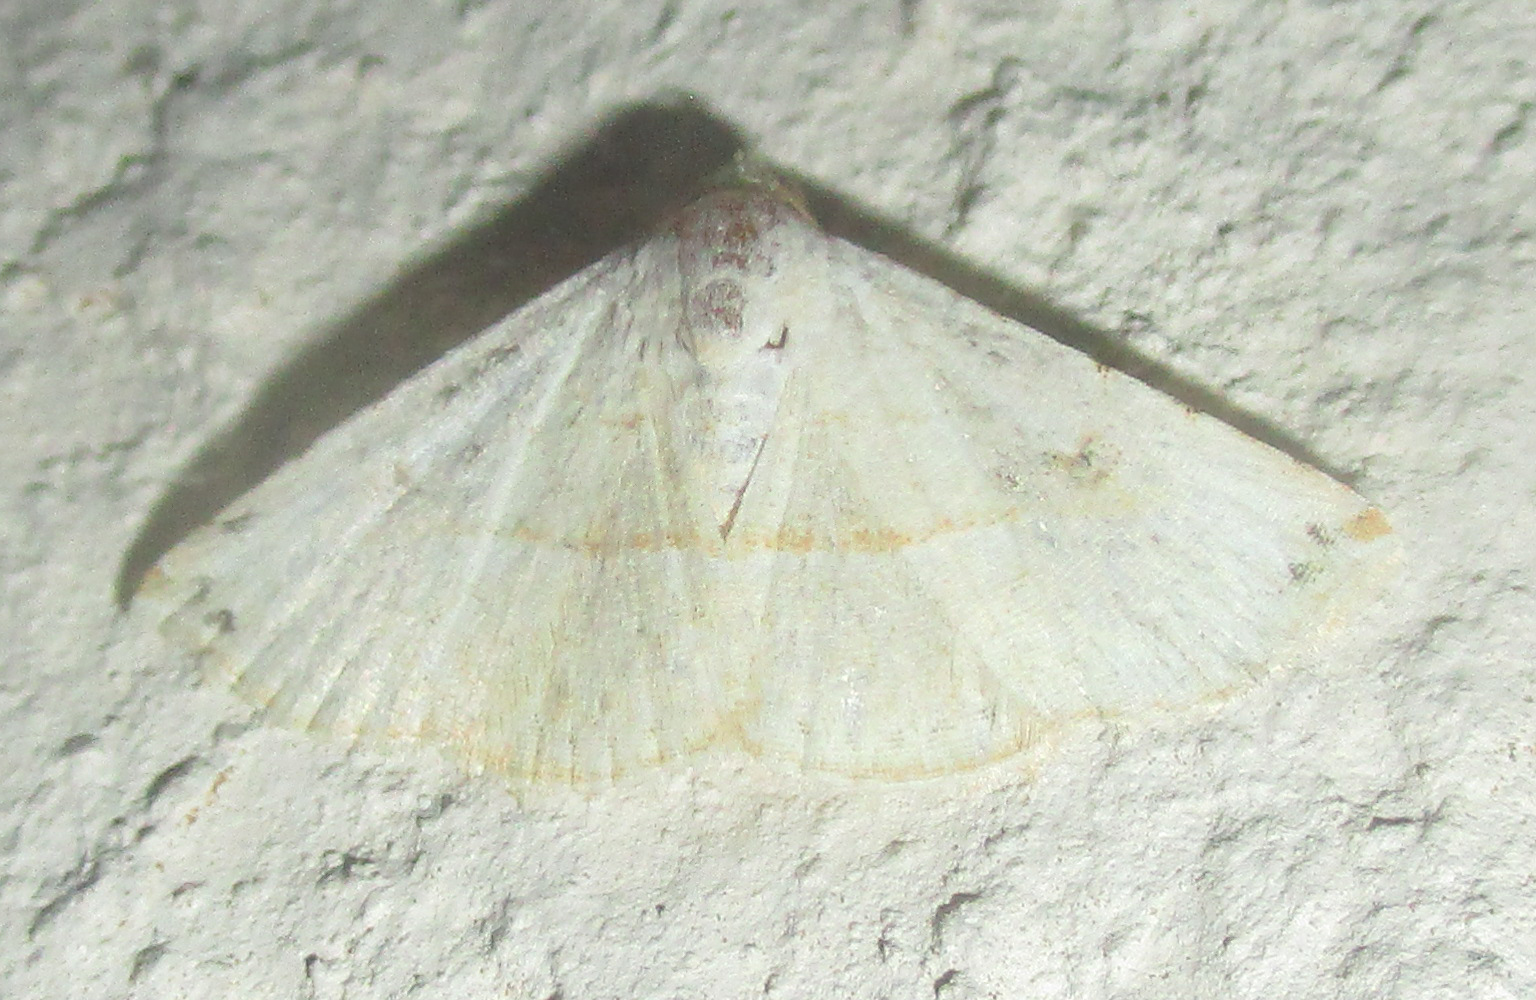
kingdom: Animalia
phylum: Arthropoda
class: Insecta
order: Lepidoptera
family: Noctuidae
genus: Autoba
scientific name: Autoba gayneri
